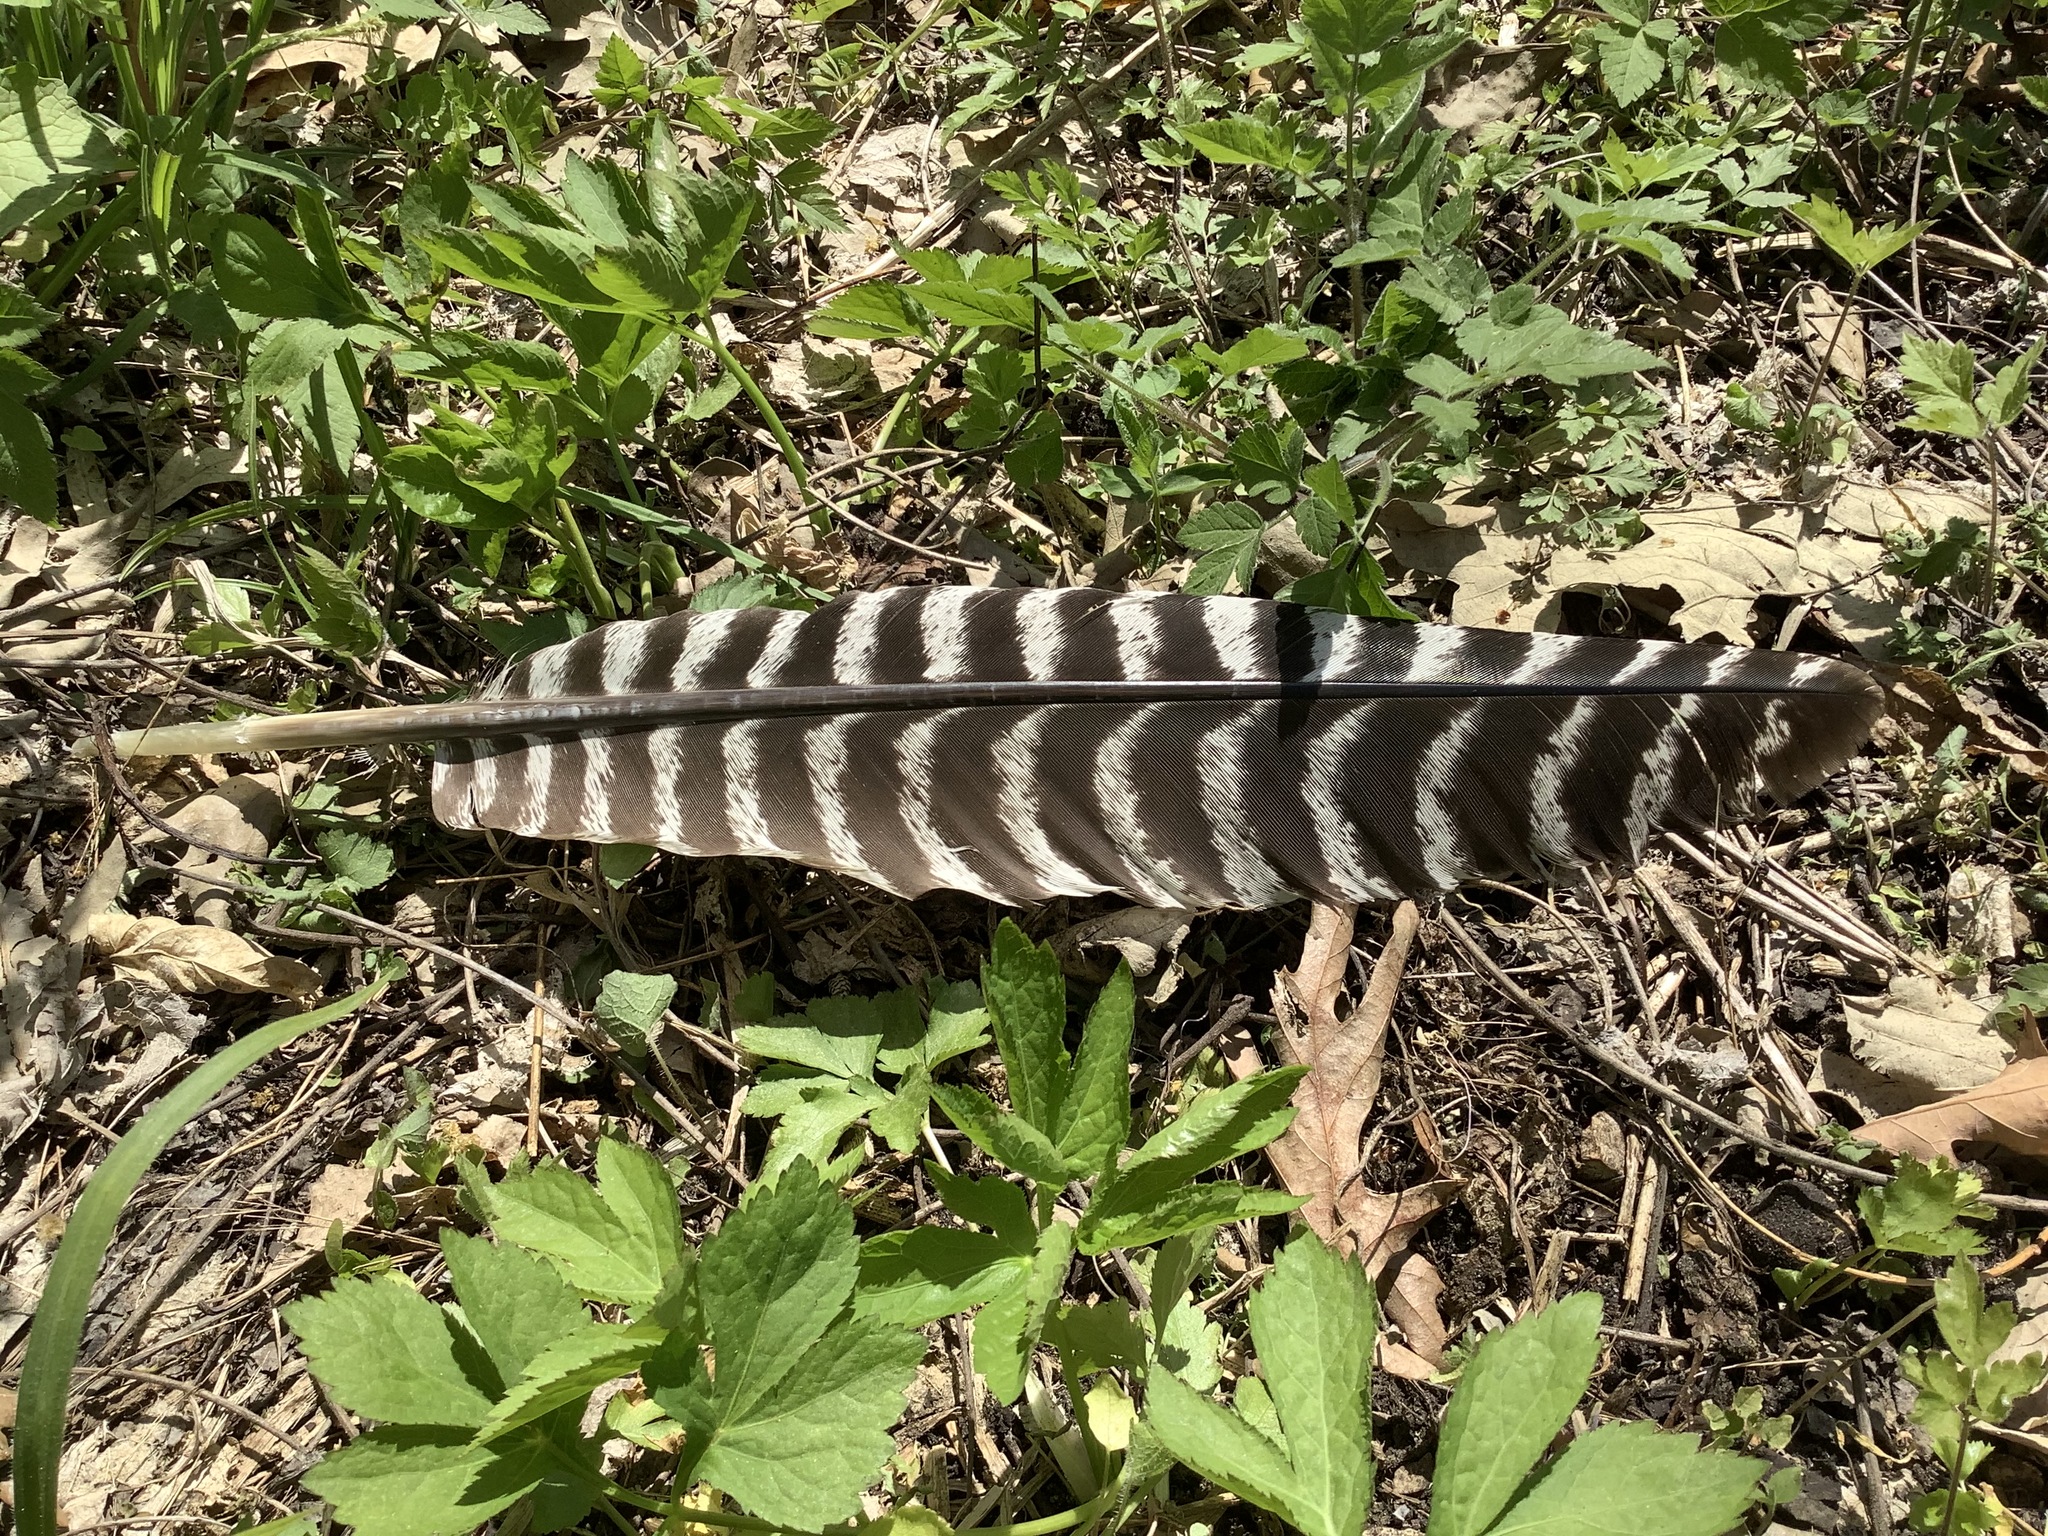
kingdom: Animalia
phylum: Chordata
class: Aves
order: Galliformes
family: Phasianidae
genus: Meleagris
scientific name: Meleagris gallopavo
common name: Wild turkey
